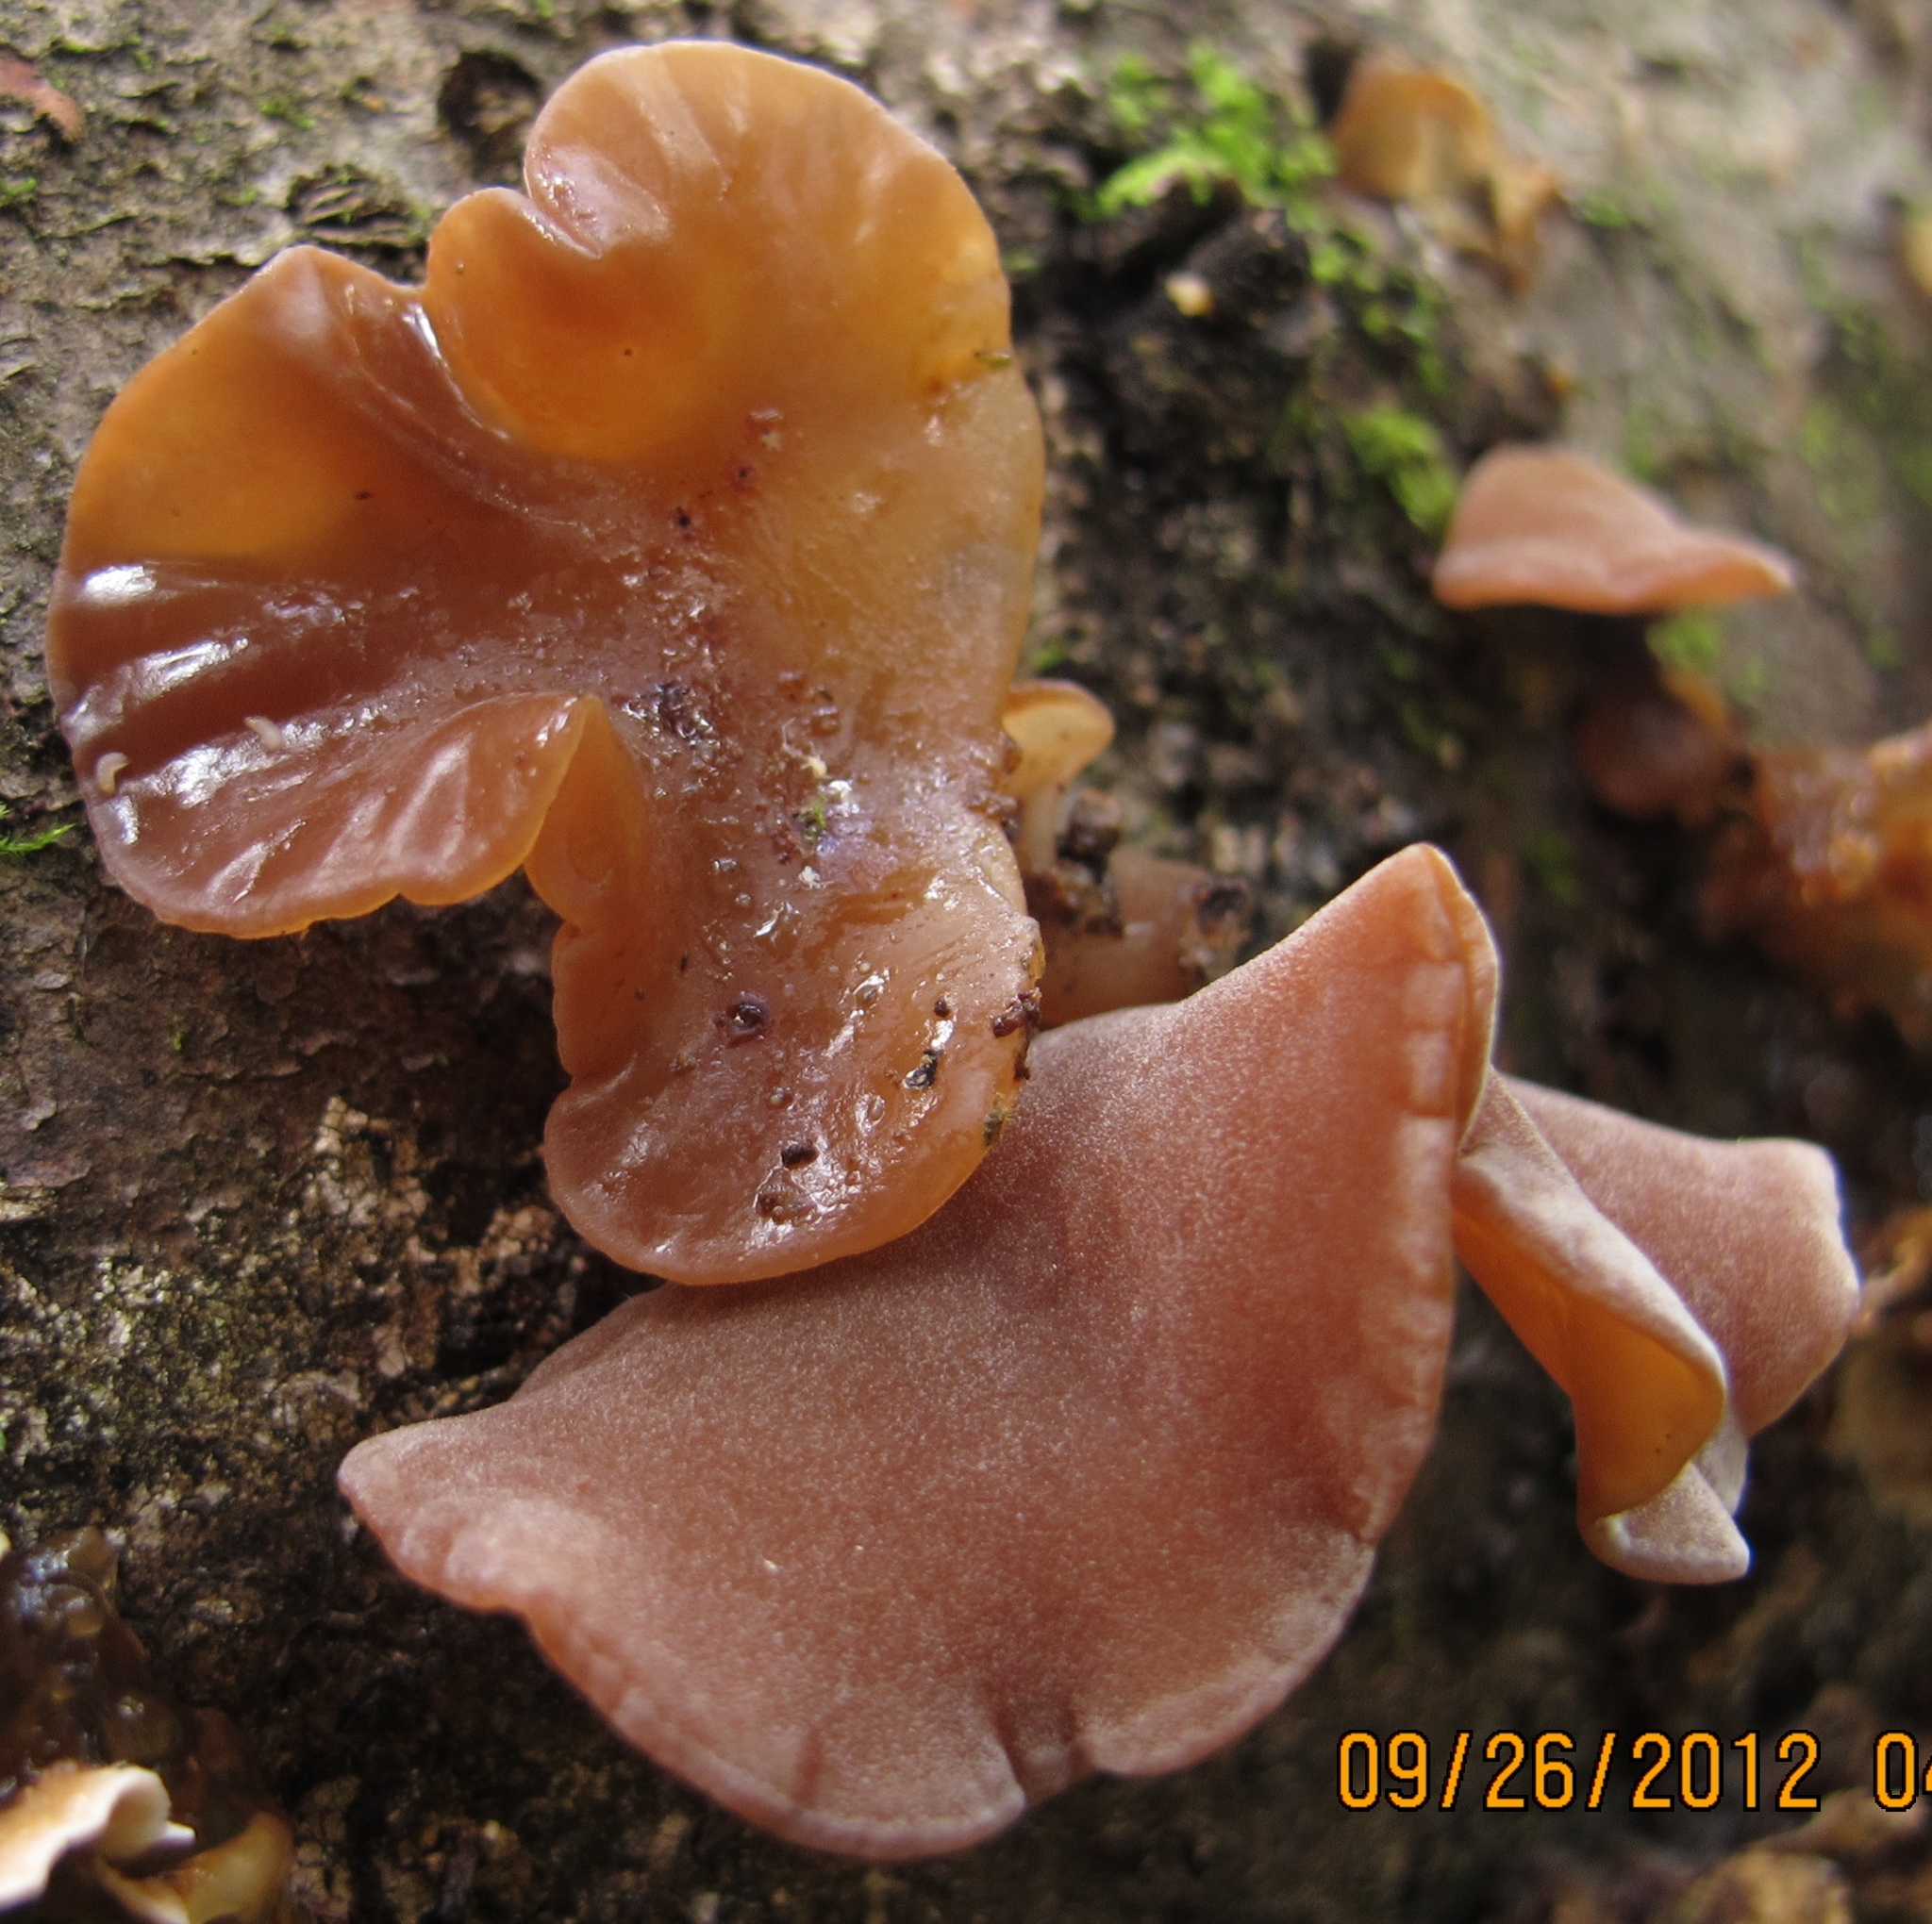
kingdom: Fungi
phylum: Basidiomycota
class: Agaricomycetes
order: Auriculariales
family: Auriculariaceae
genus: Auricularia
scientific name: Auricularia americana
